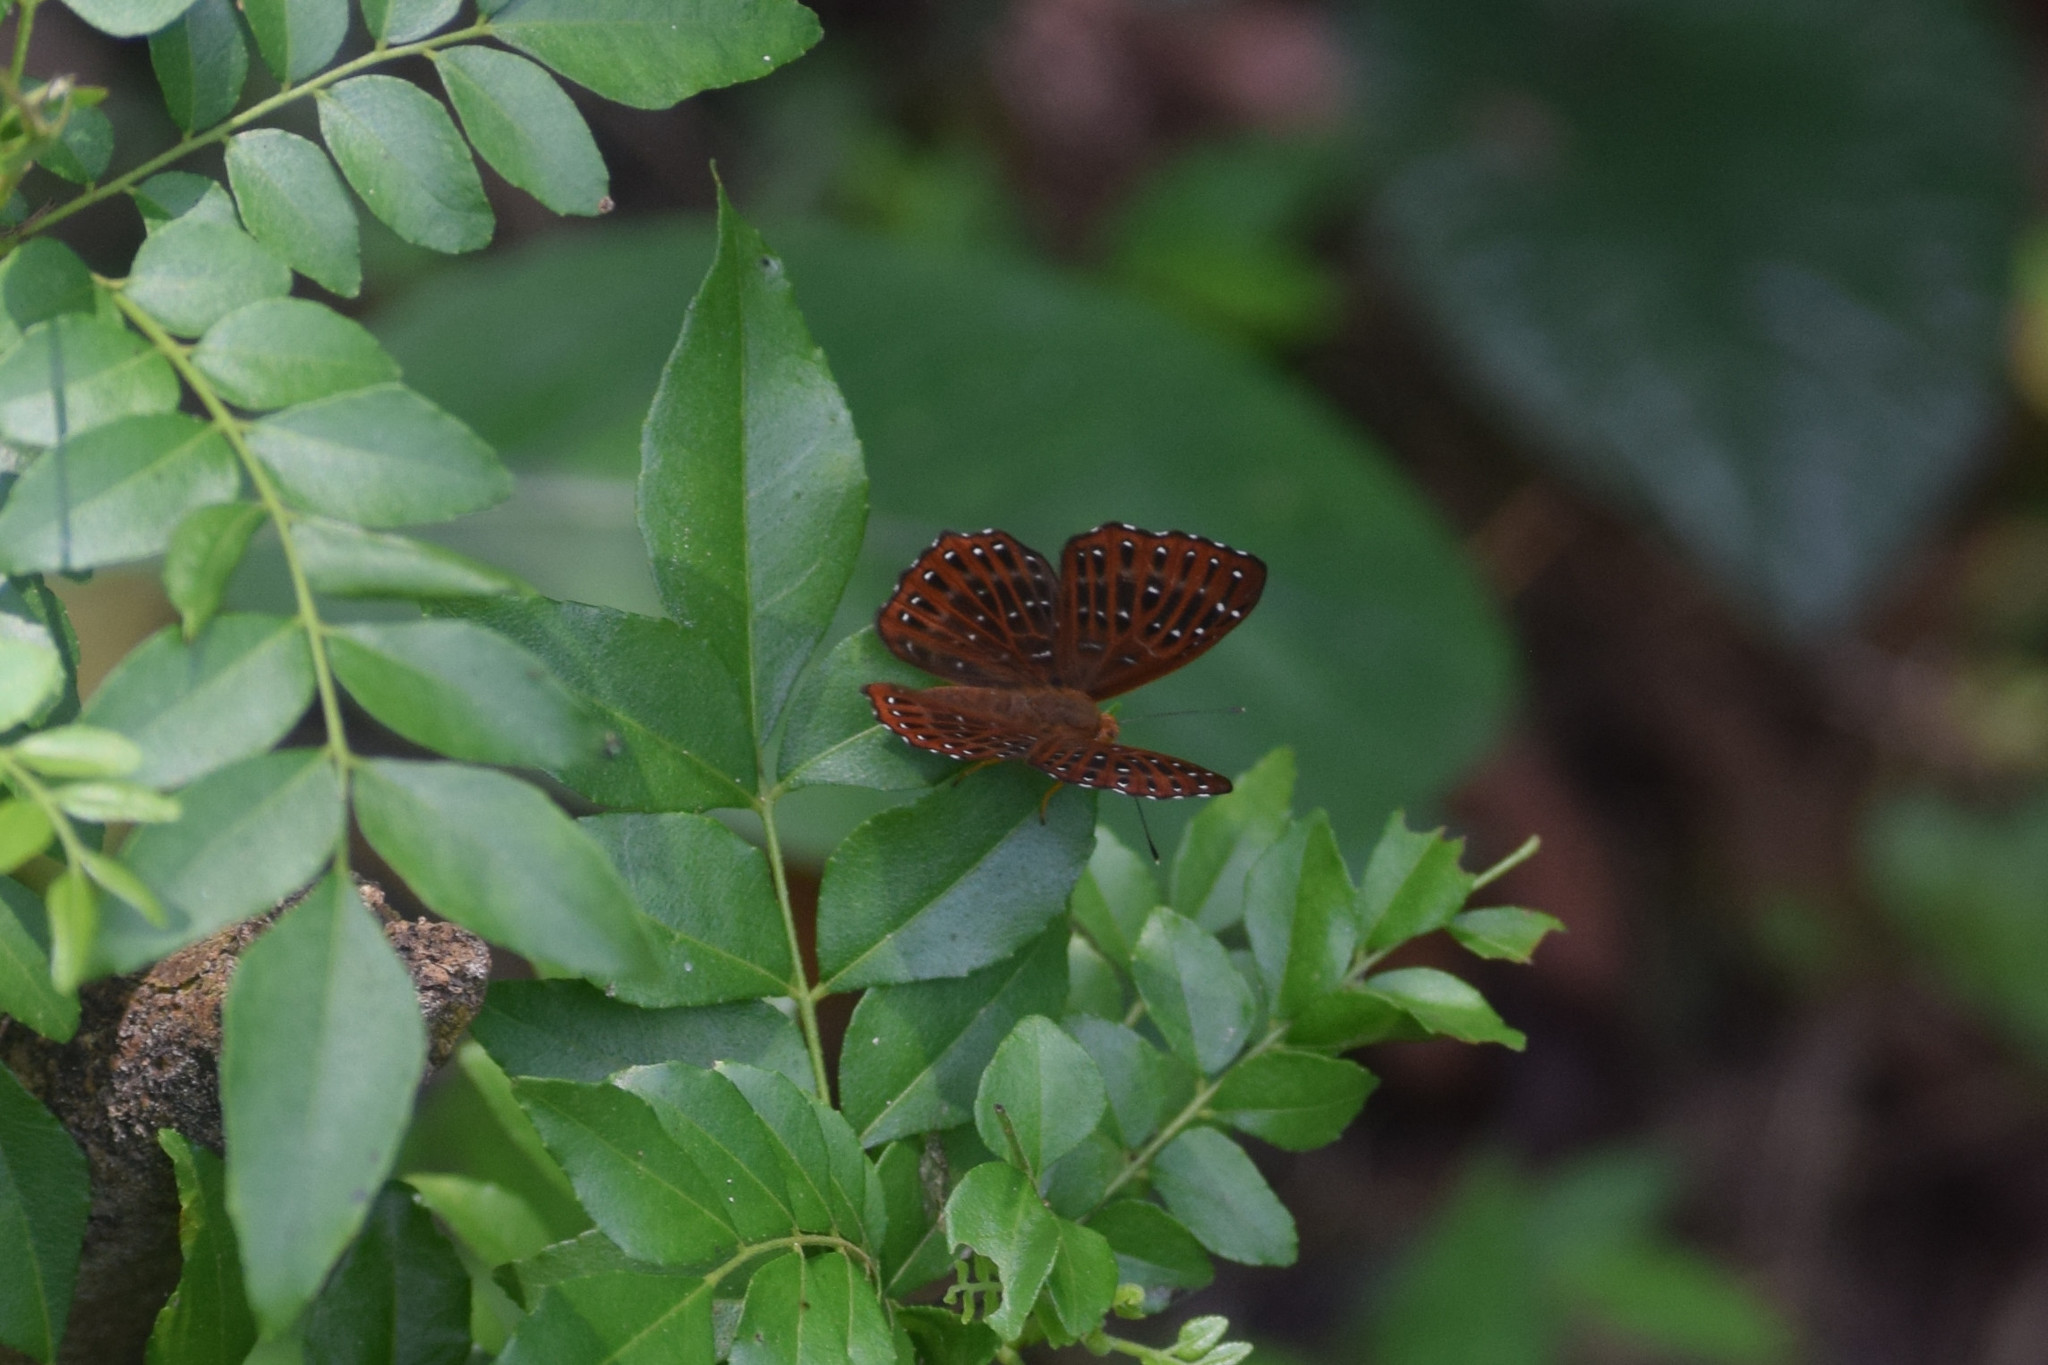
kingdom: Animalia
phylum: Arthropoda
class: Insecta
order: Lepidoptera
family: Riodinidae
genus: Zemeros
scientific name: Zemeros flegyas
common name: Punchinello
